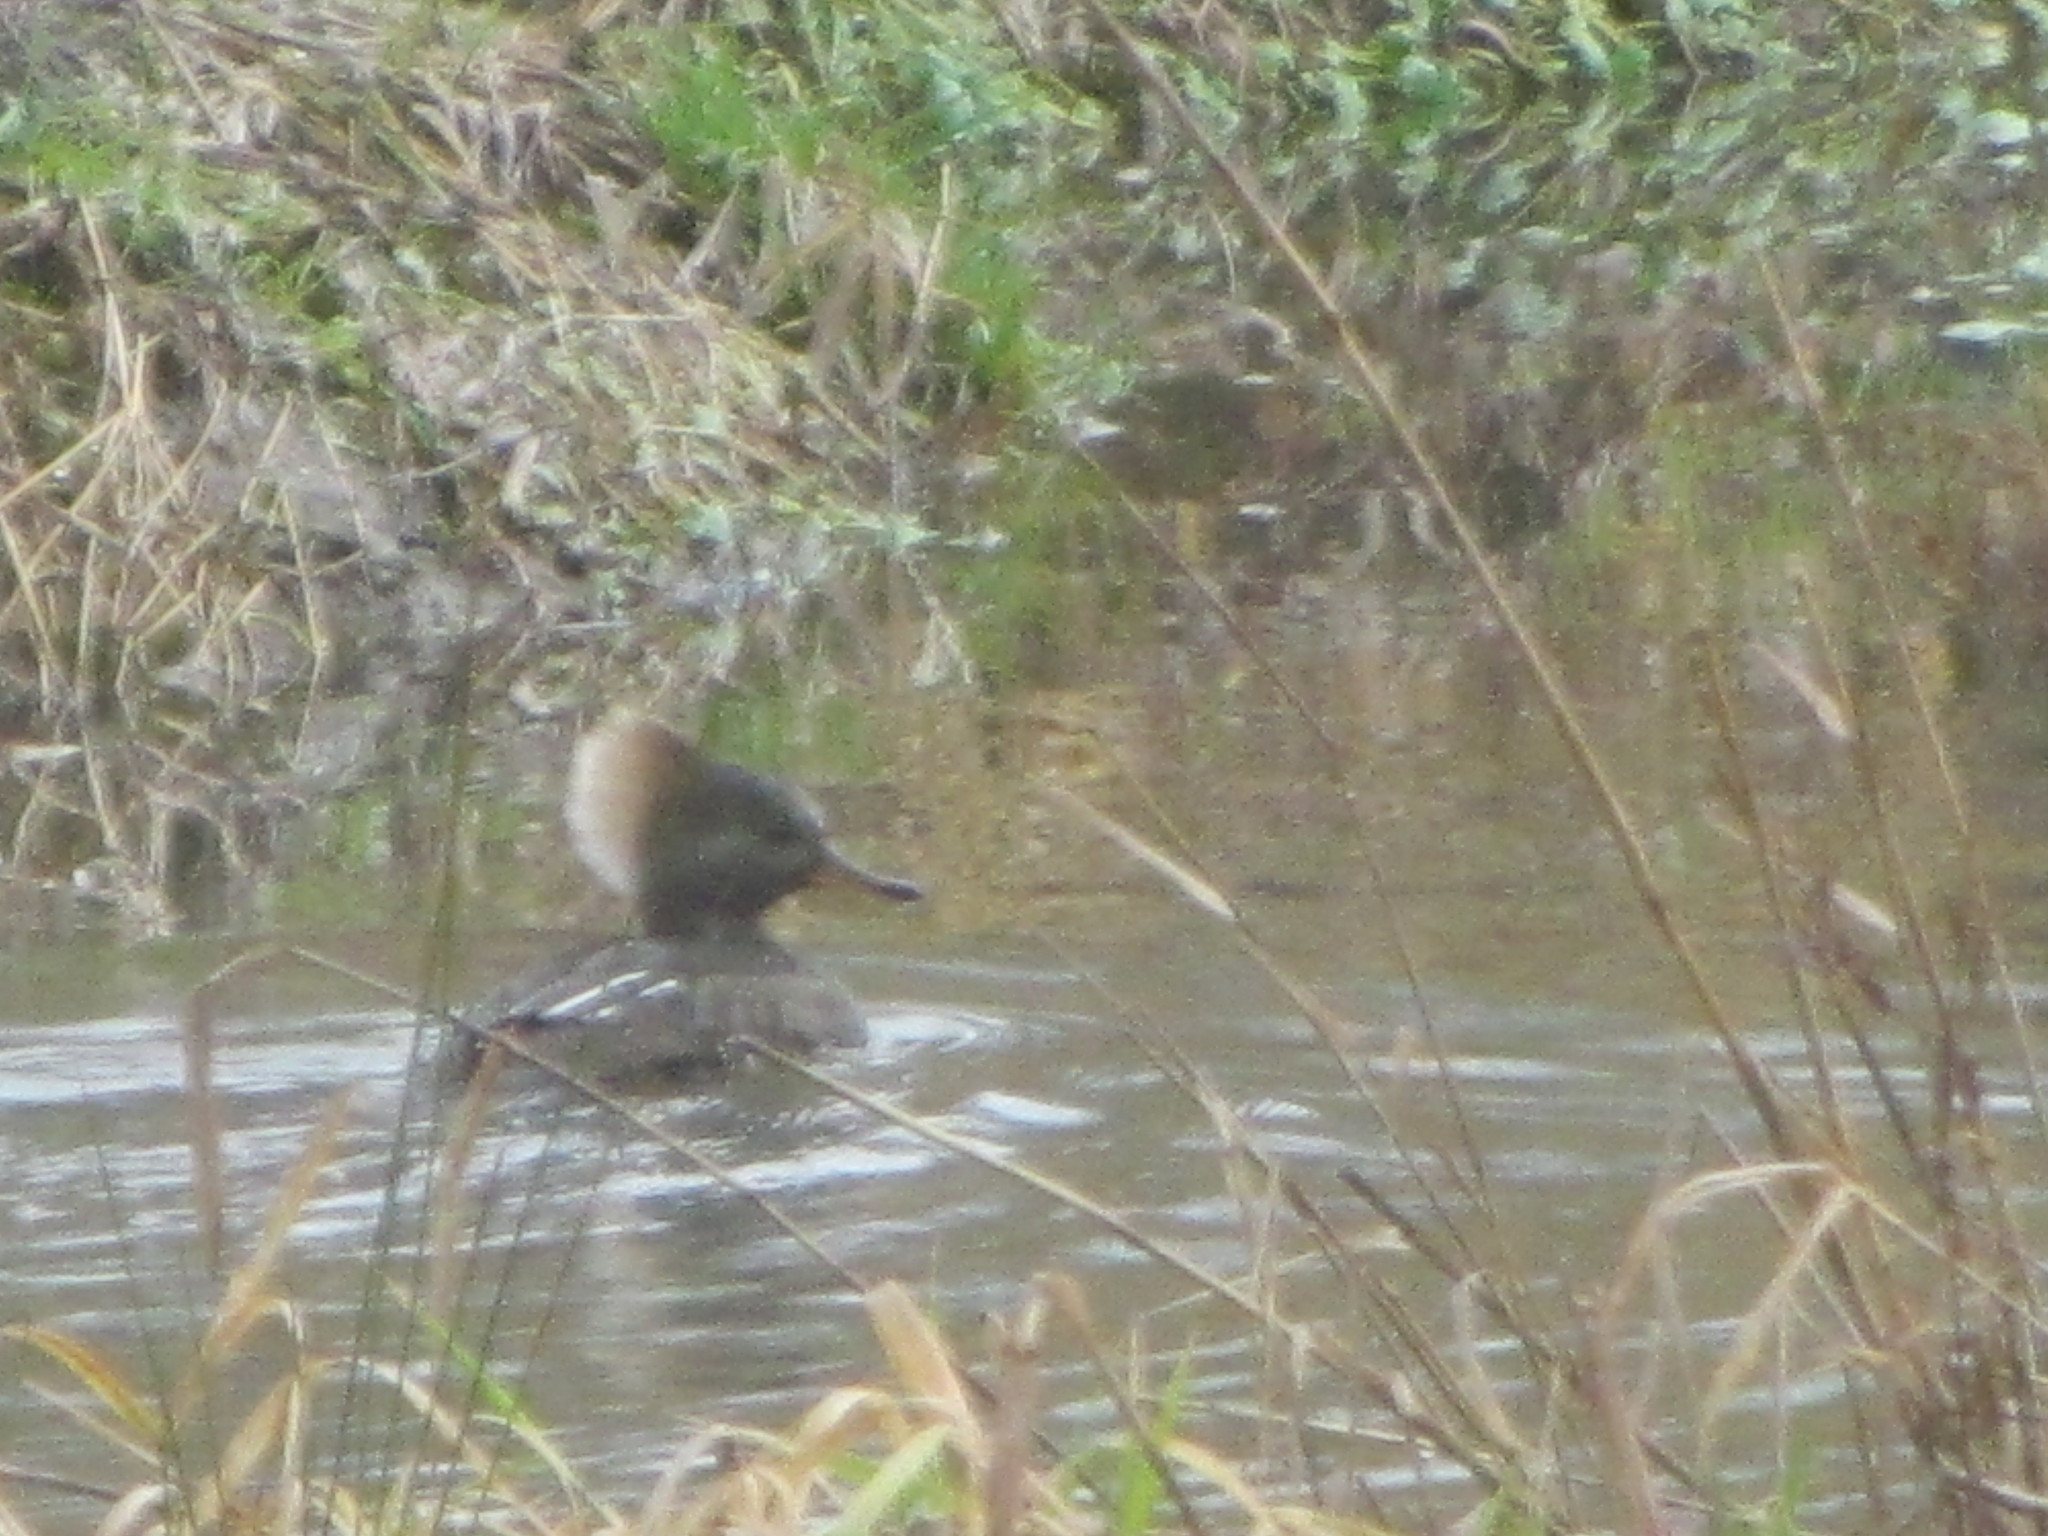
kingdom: Animalia
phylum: Chordata
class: Aves
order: Anseriformes
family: Anatidae
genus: Lophodytes
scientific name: Lophodytes cucullatus
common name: Hooded merganser
